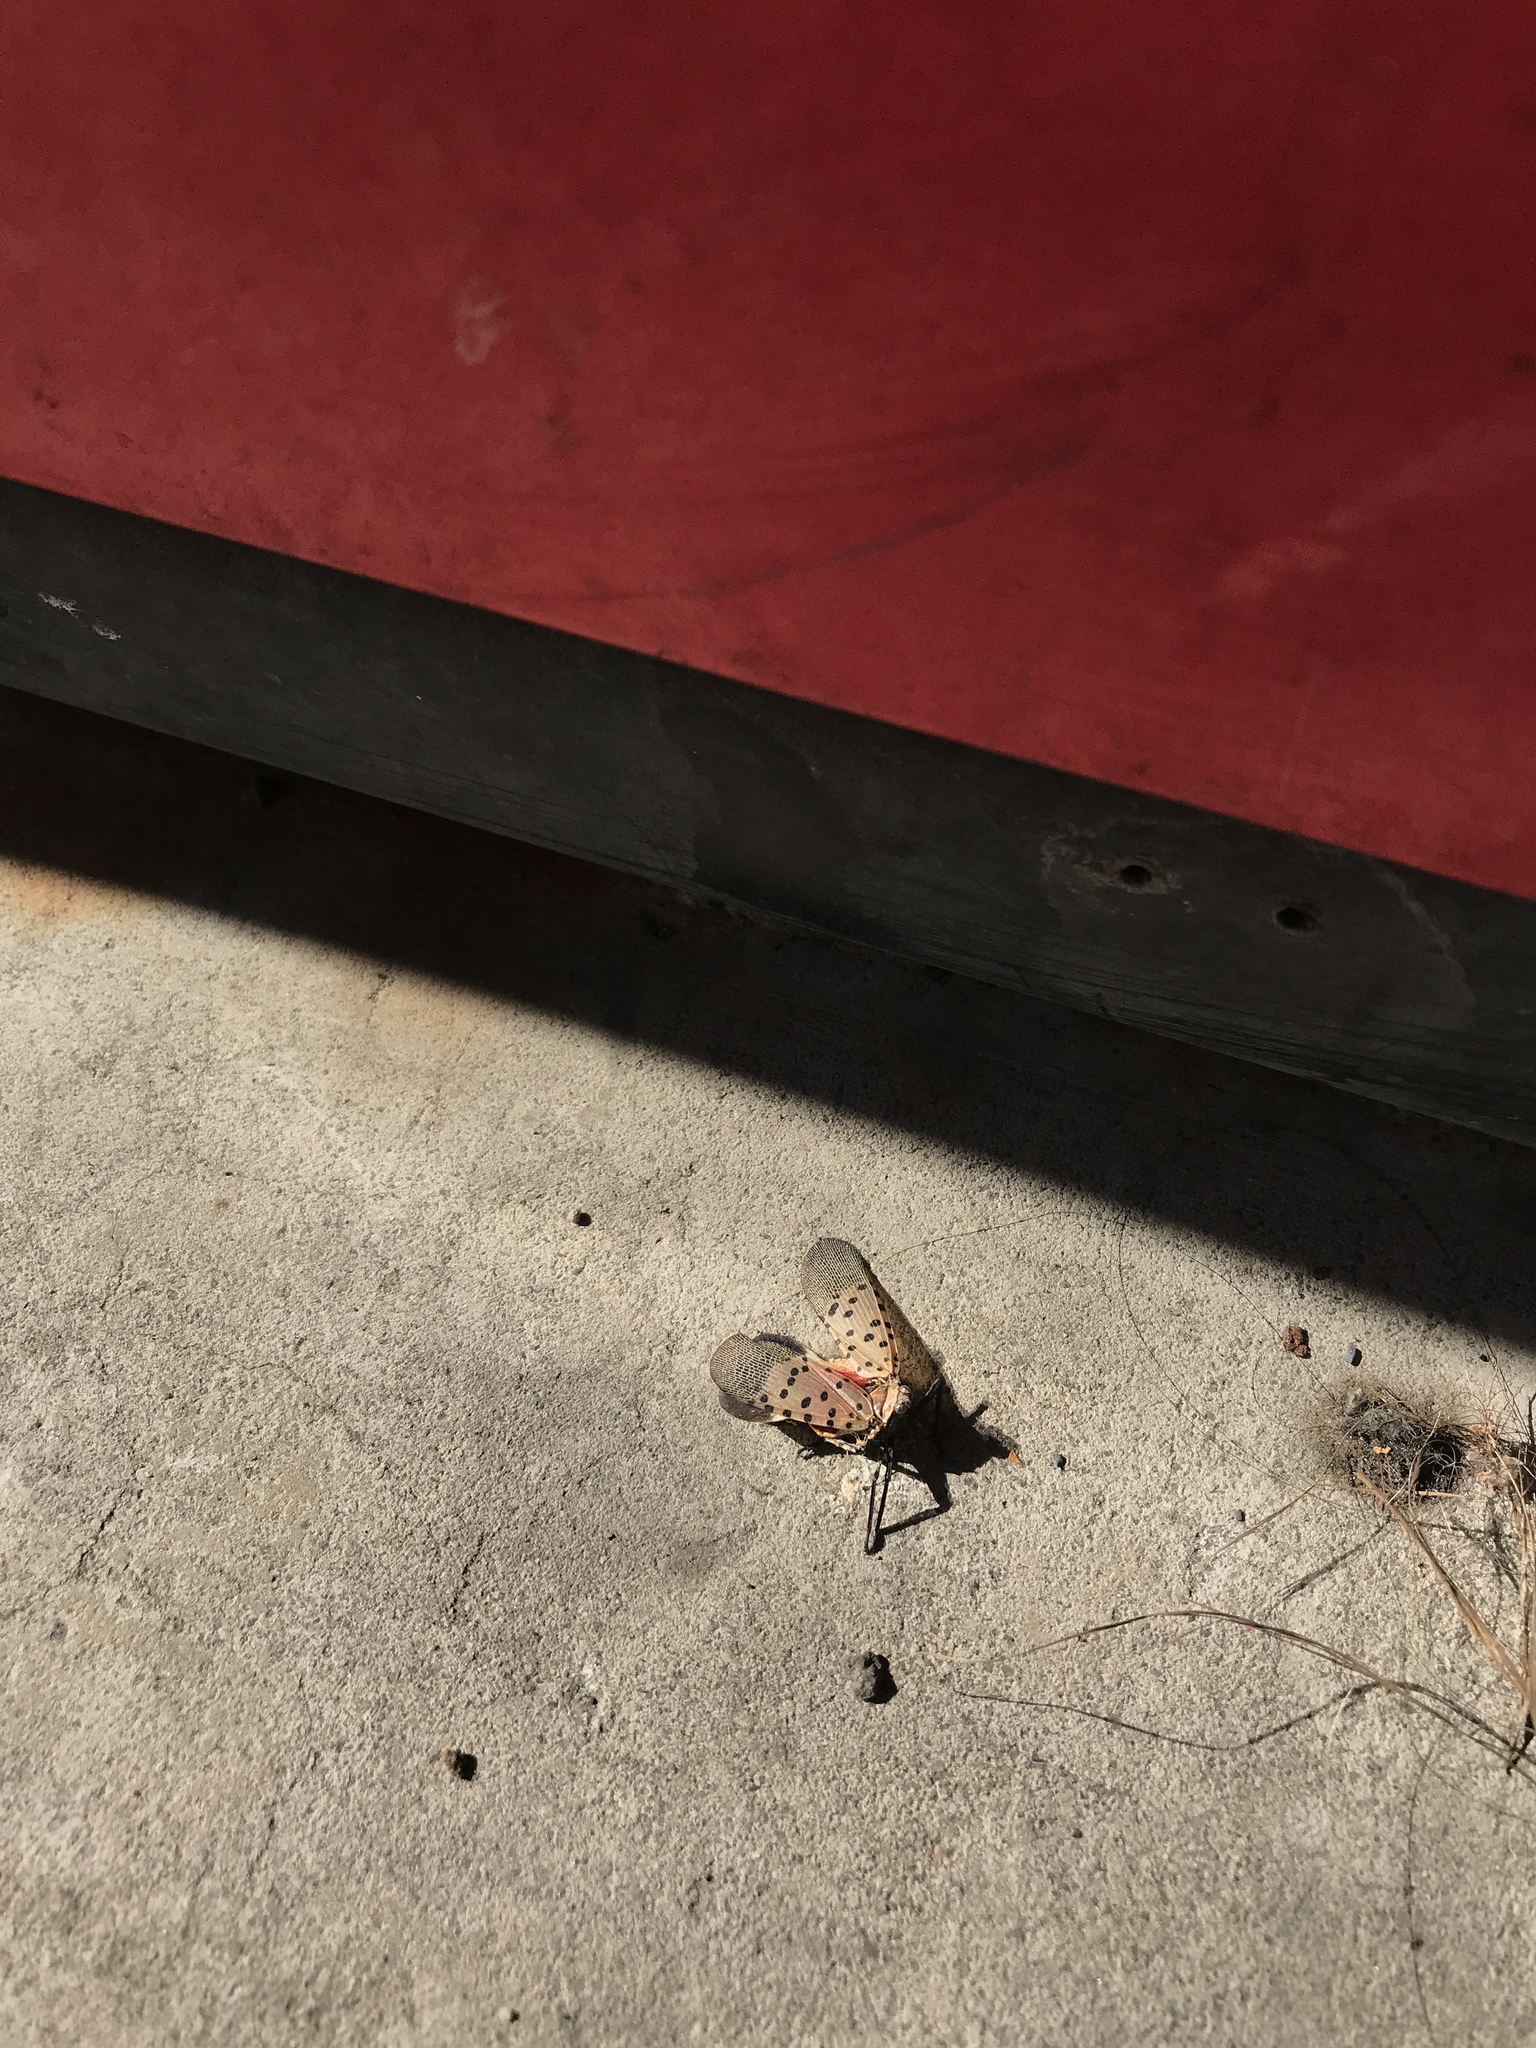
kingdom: Animalia
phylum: Arthropoda
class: Insecta
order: Hemiptera
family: Fulgoridae
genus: Lycorma
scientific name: Lycorma delicatula
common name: Spotted lanternfly
